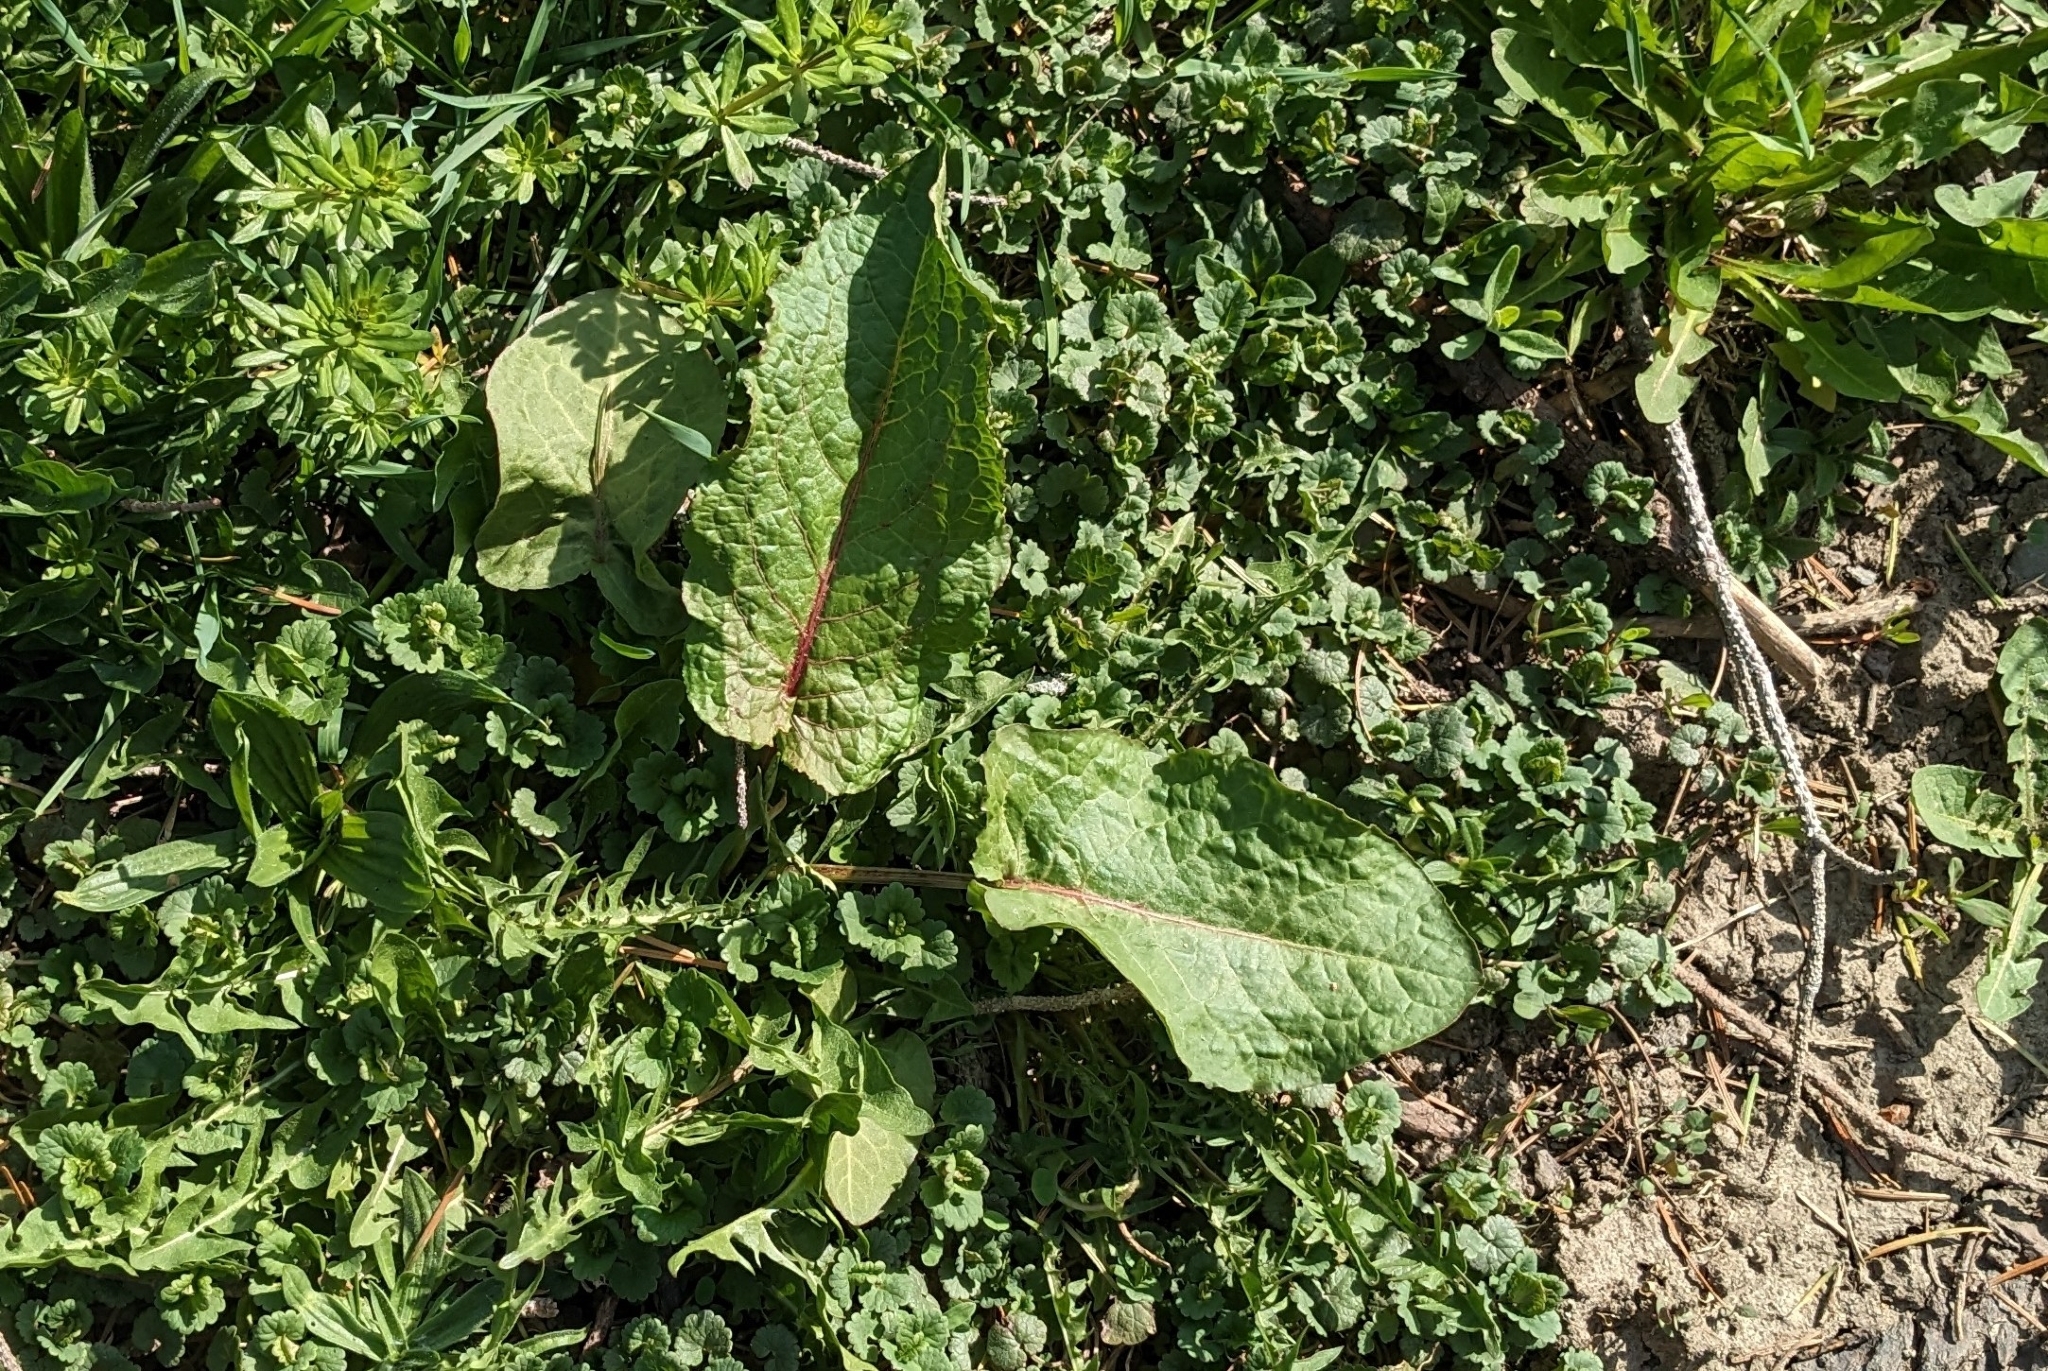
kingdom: Plantae
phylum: Tracheophyta
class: Magnoliopsida
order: Caryophyllales
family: Polygonaceae
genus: Rumex
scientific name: Rumex obtusifolius
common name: Bitter dock
